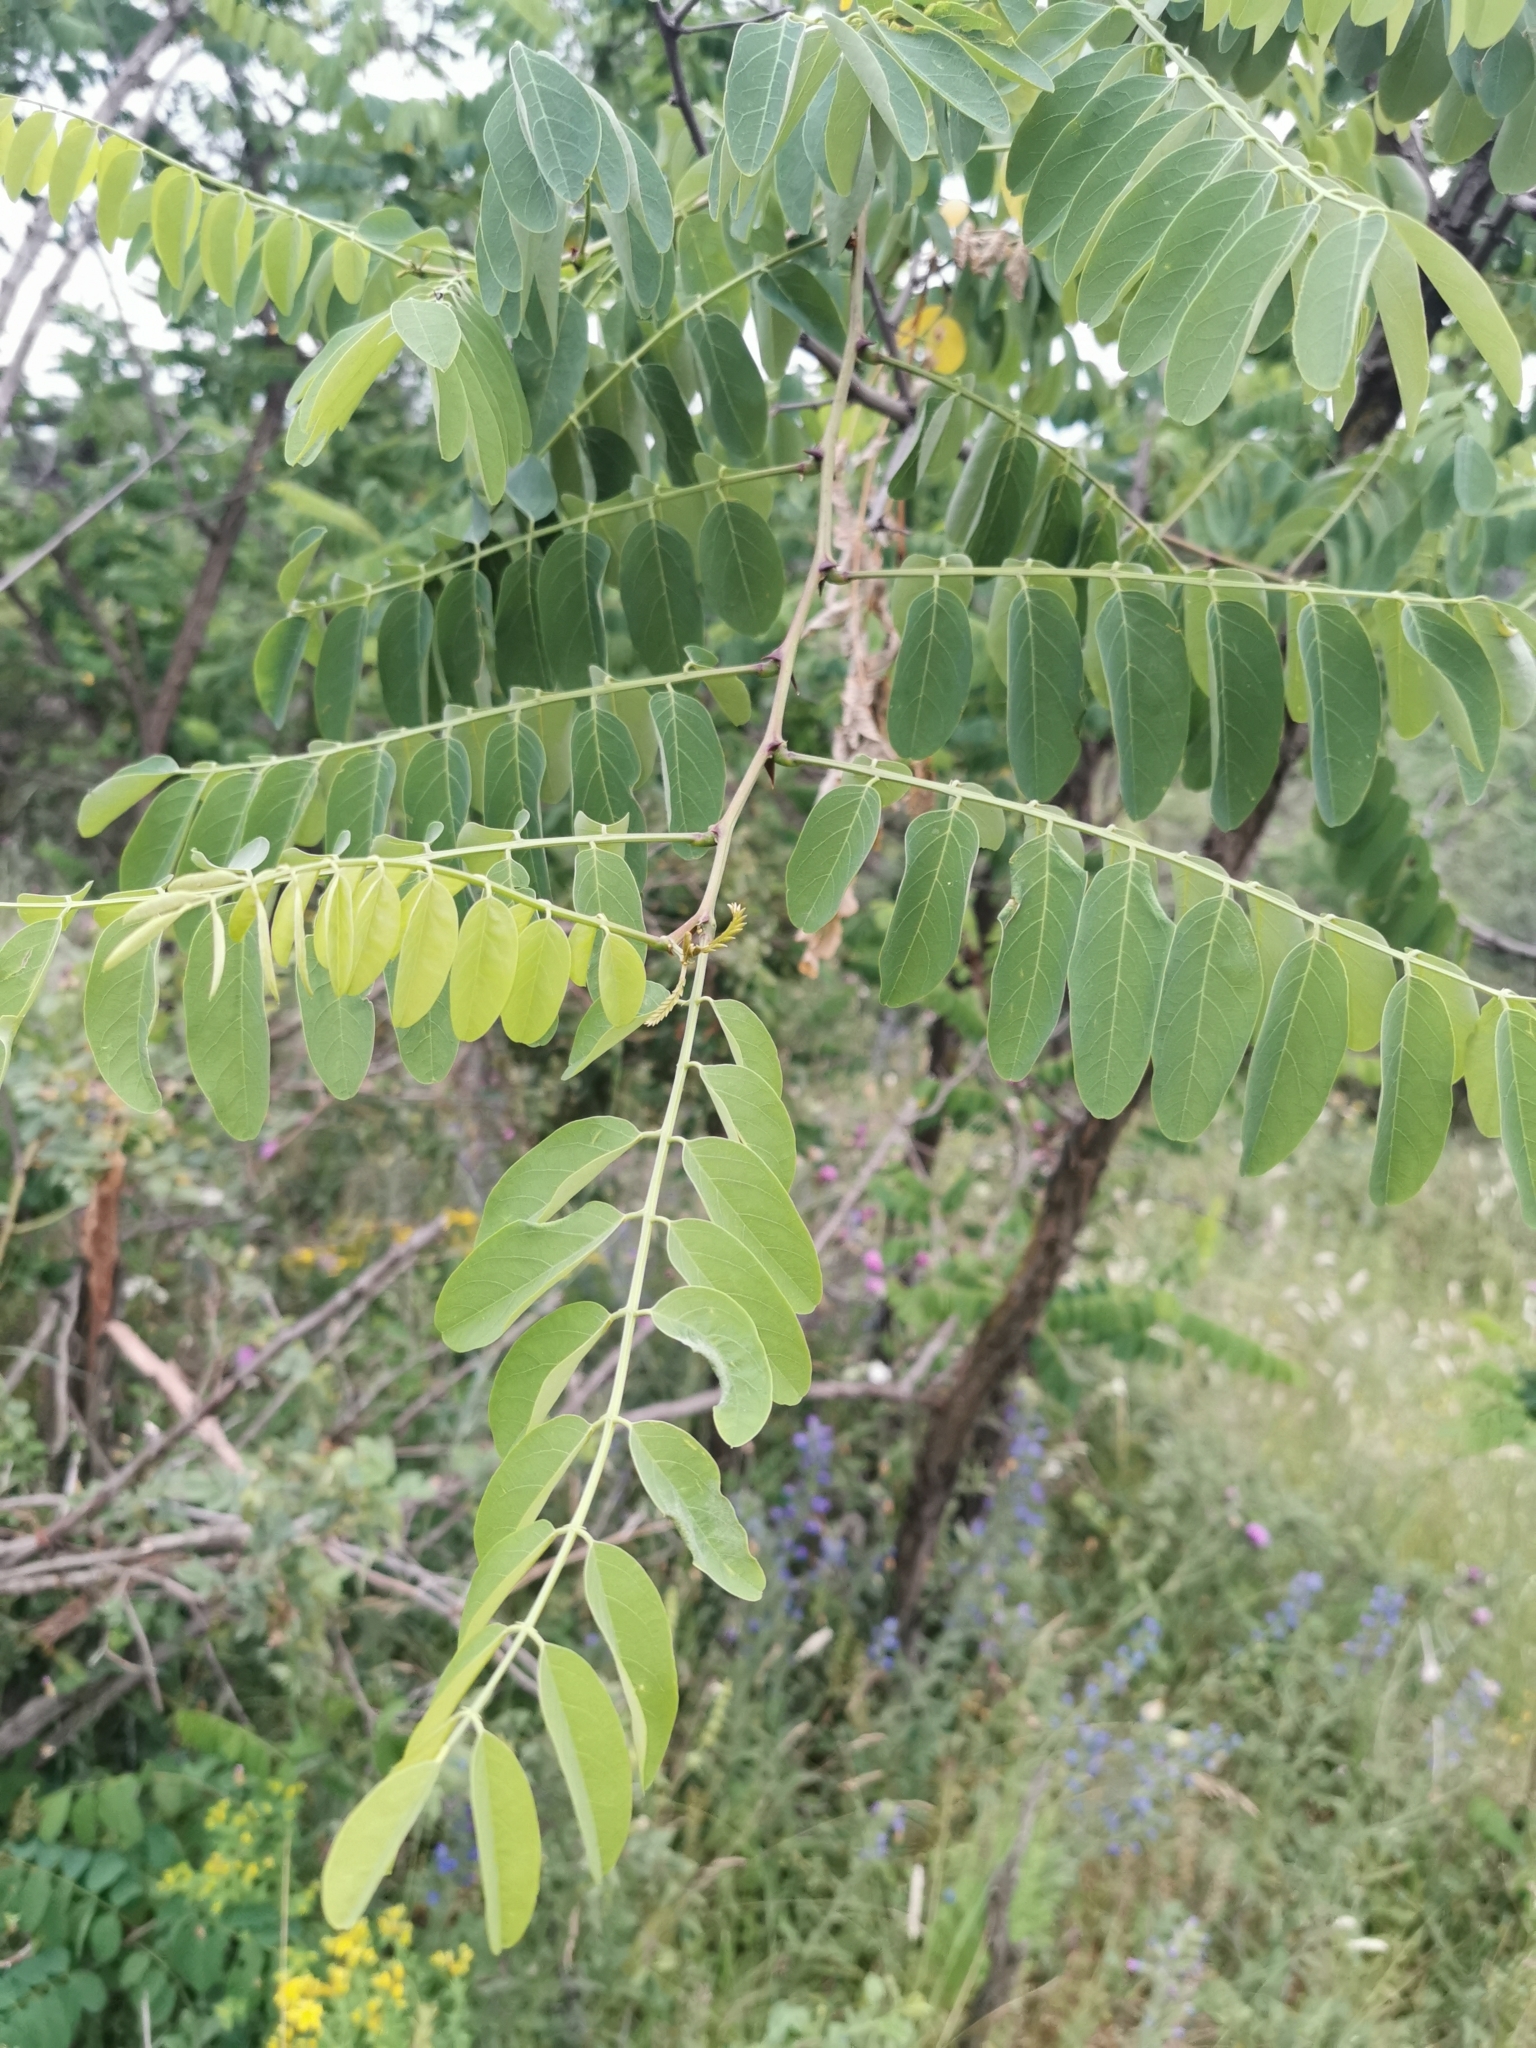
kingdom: Plantae
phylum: Tracheophyta
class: Magnoliopsida
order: Fabales
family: Fabaceae
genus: Robinia
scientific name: Robinia pseudoacacia
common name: Black locust
